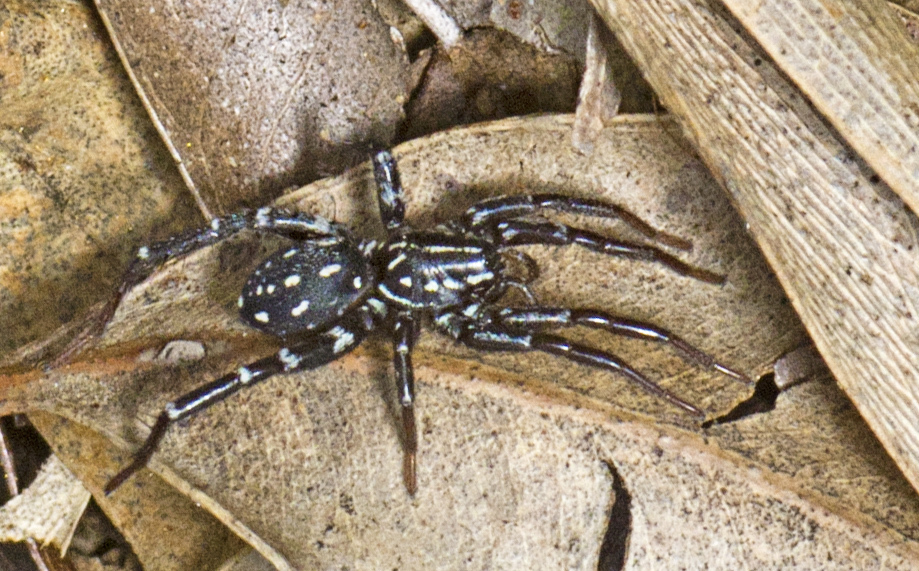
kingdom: Animalia
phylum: Arthropoda
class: Arachnida
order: Araneae
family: Corinnidae
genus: Nyssus
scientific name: Nyssus albopunctatus
